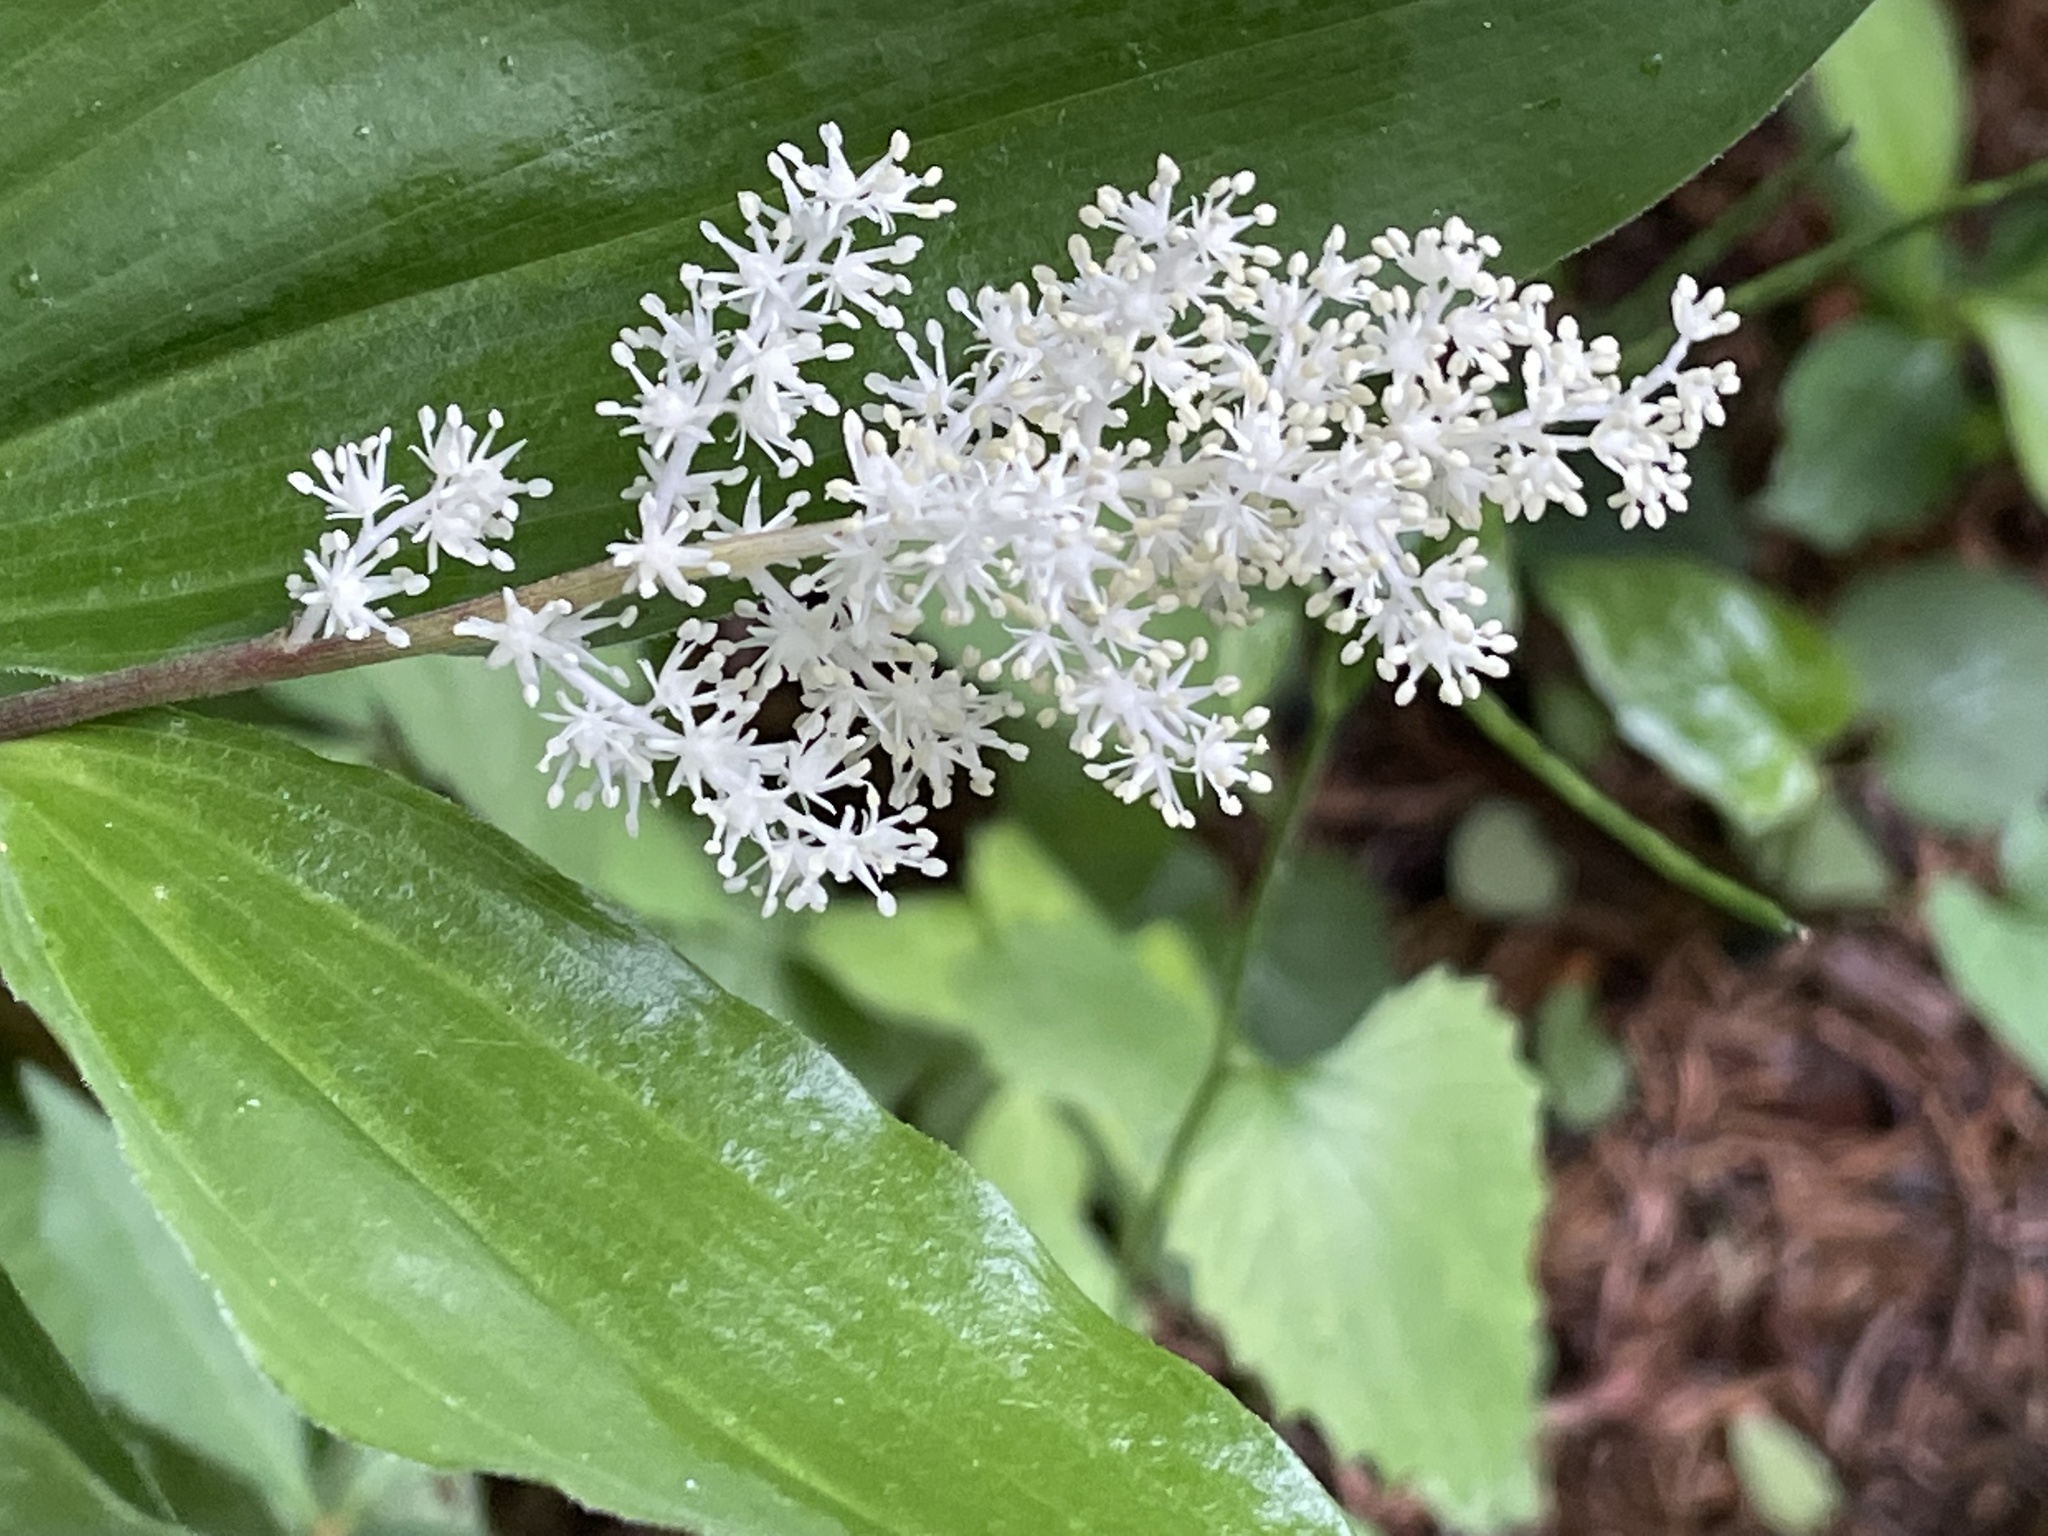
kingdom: Plantae
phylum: Tracheophyta
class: Liliopsida
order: Asparagales
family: Asparagaceae
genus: Maianthemum
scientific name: Maianthemum racemosum
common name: False spikenard
